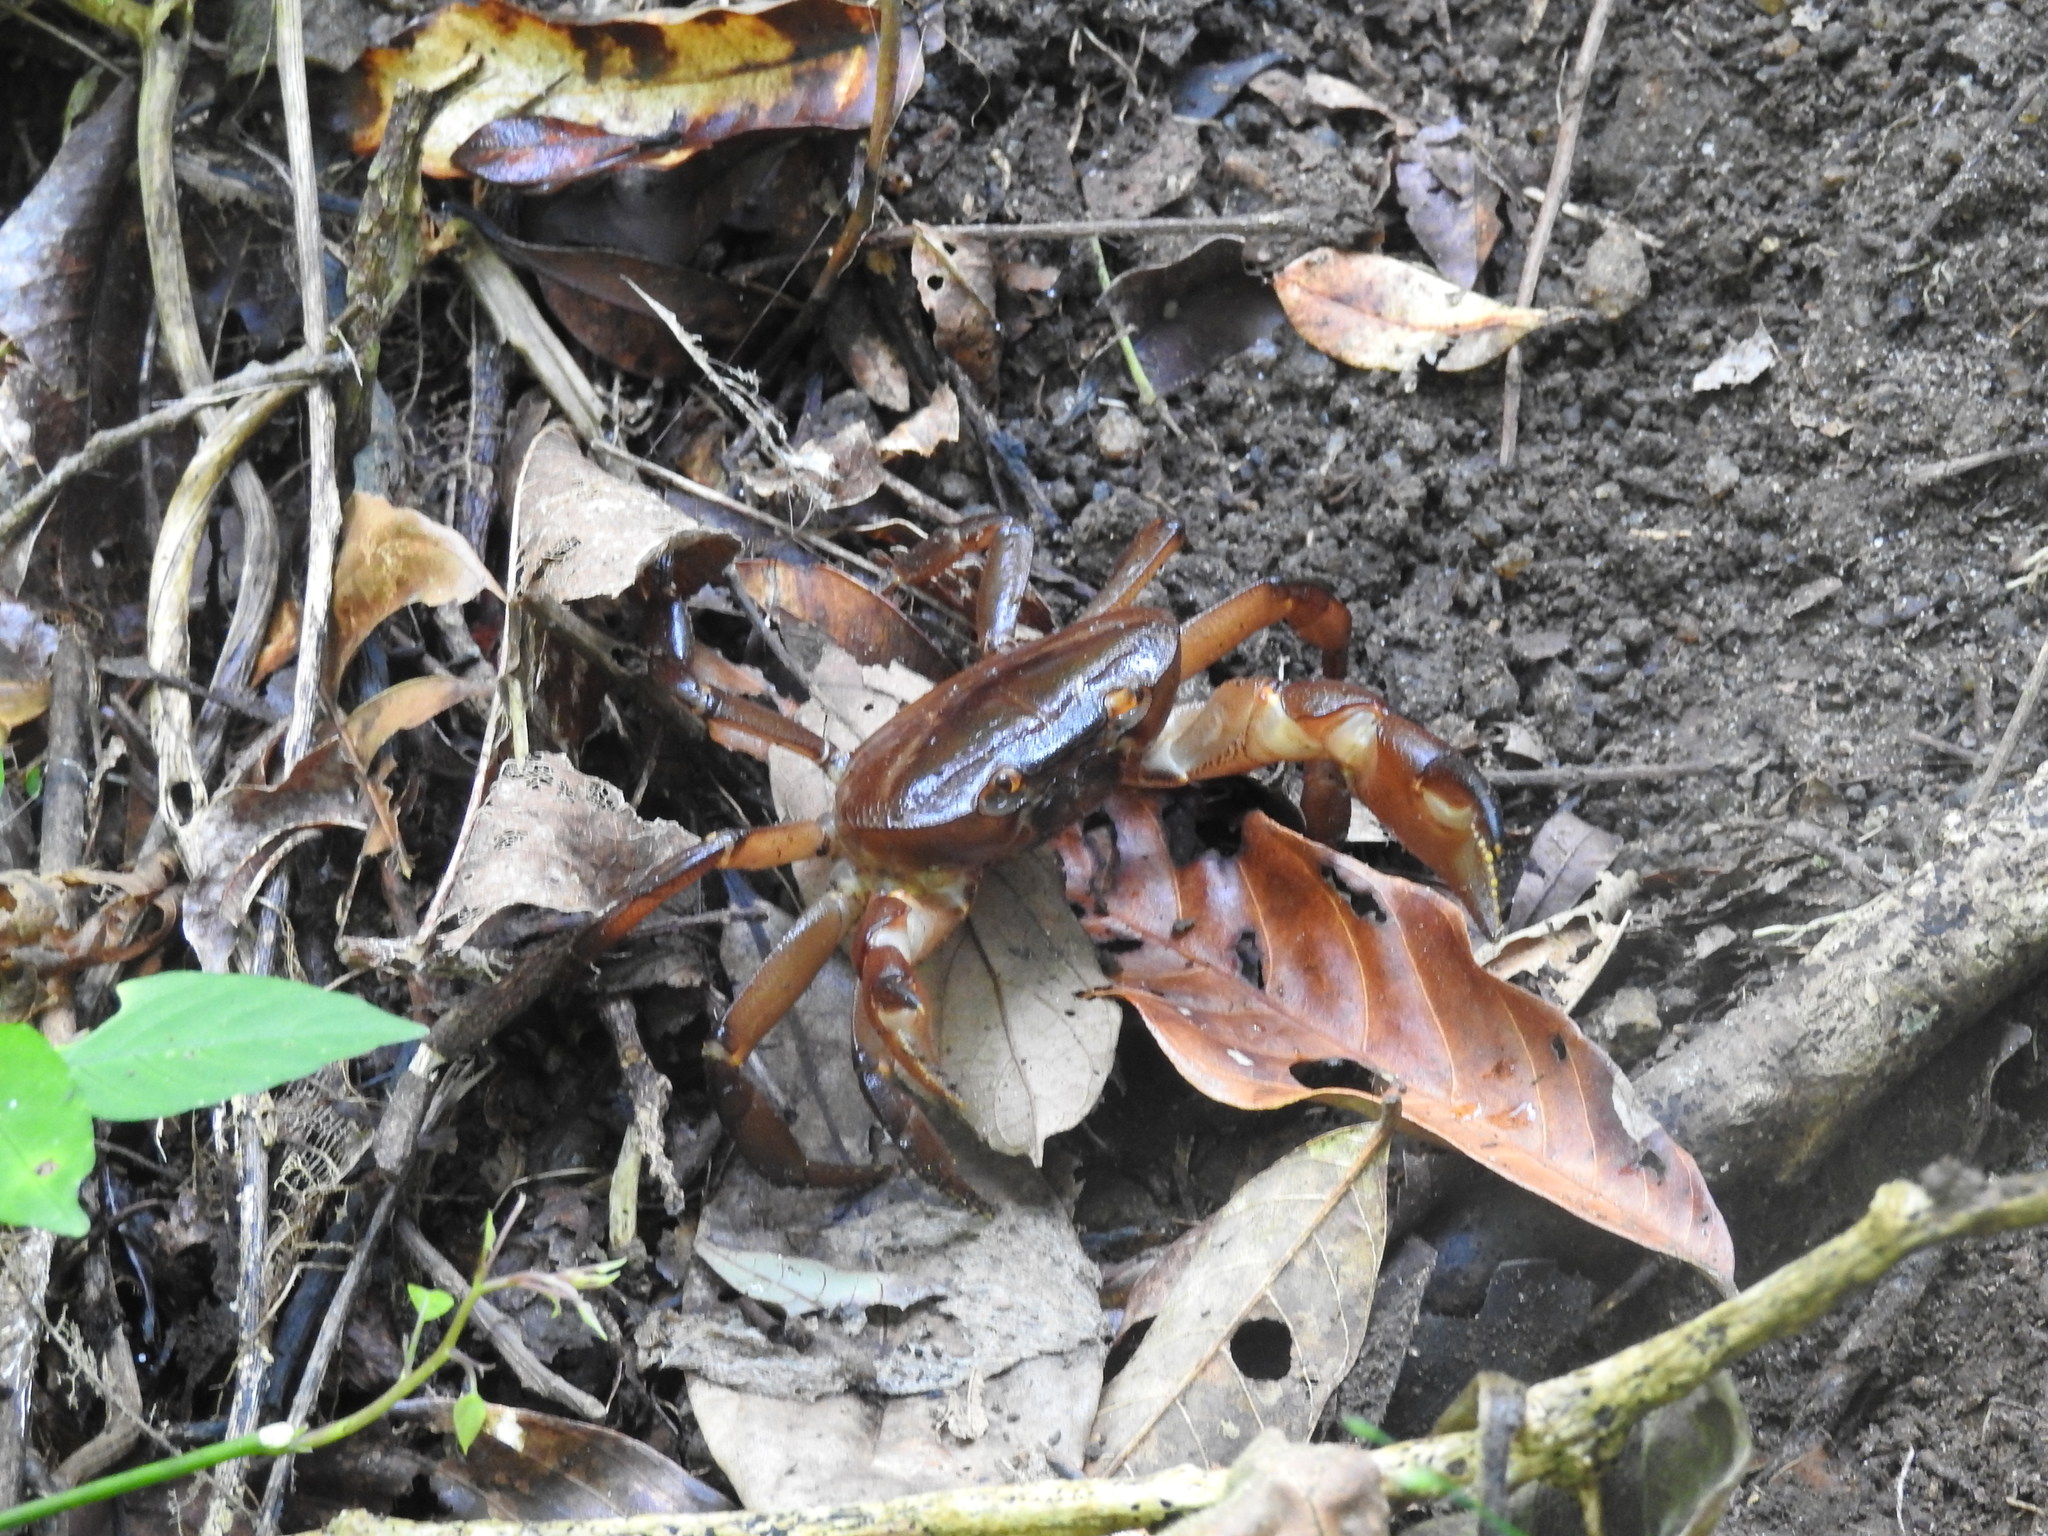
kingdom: Animalia
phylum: Arthropoda
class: Malacostraca
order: Decapoda
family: Gecarcinucidae
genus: Travancoriana
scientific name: Travancoriana convexa
